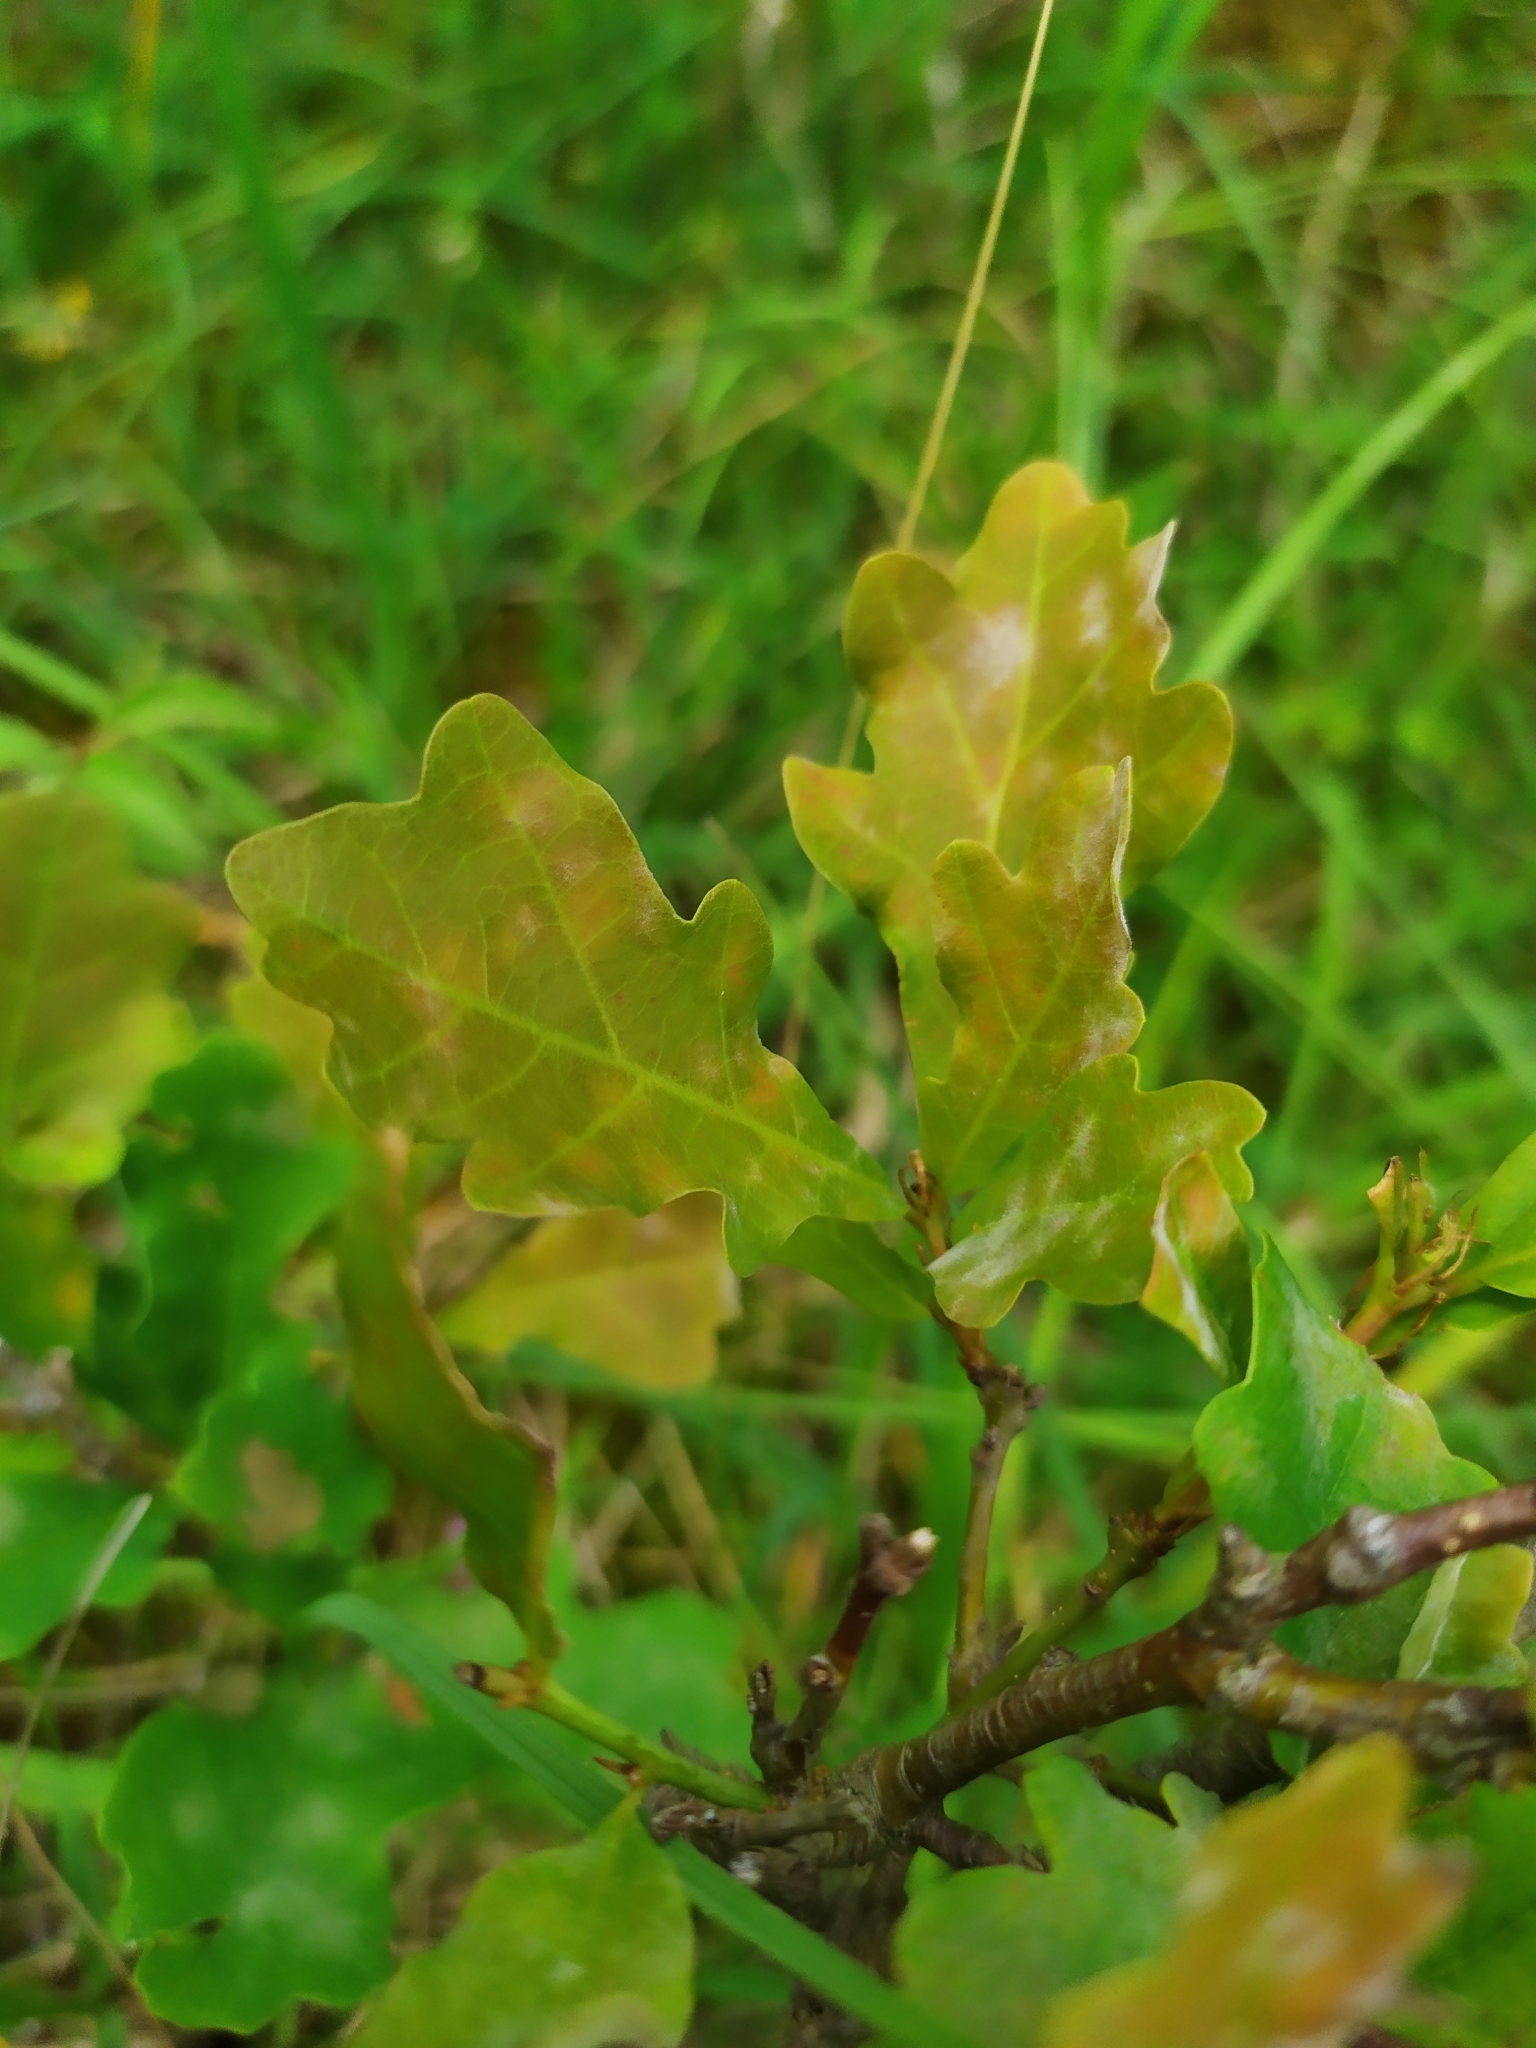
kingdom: Plantae
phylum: Tracheophyta
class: Magnoliopsida
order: Fagales
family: Fagaceae
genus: Quercus
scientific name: Quercus robur
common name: Pedunculate oak
